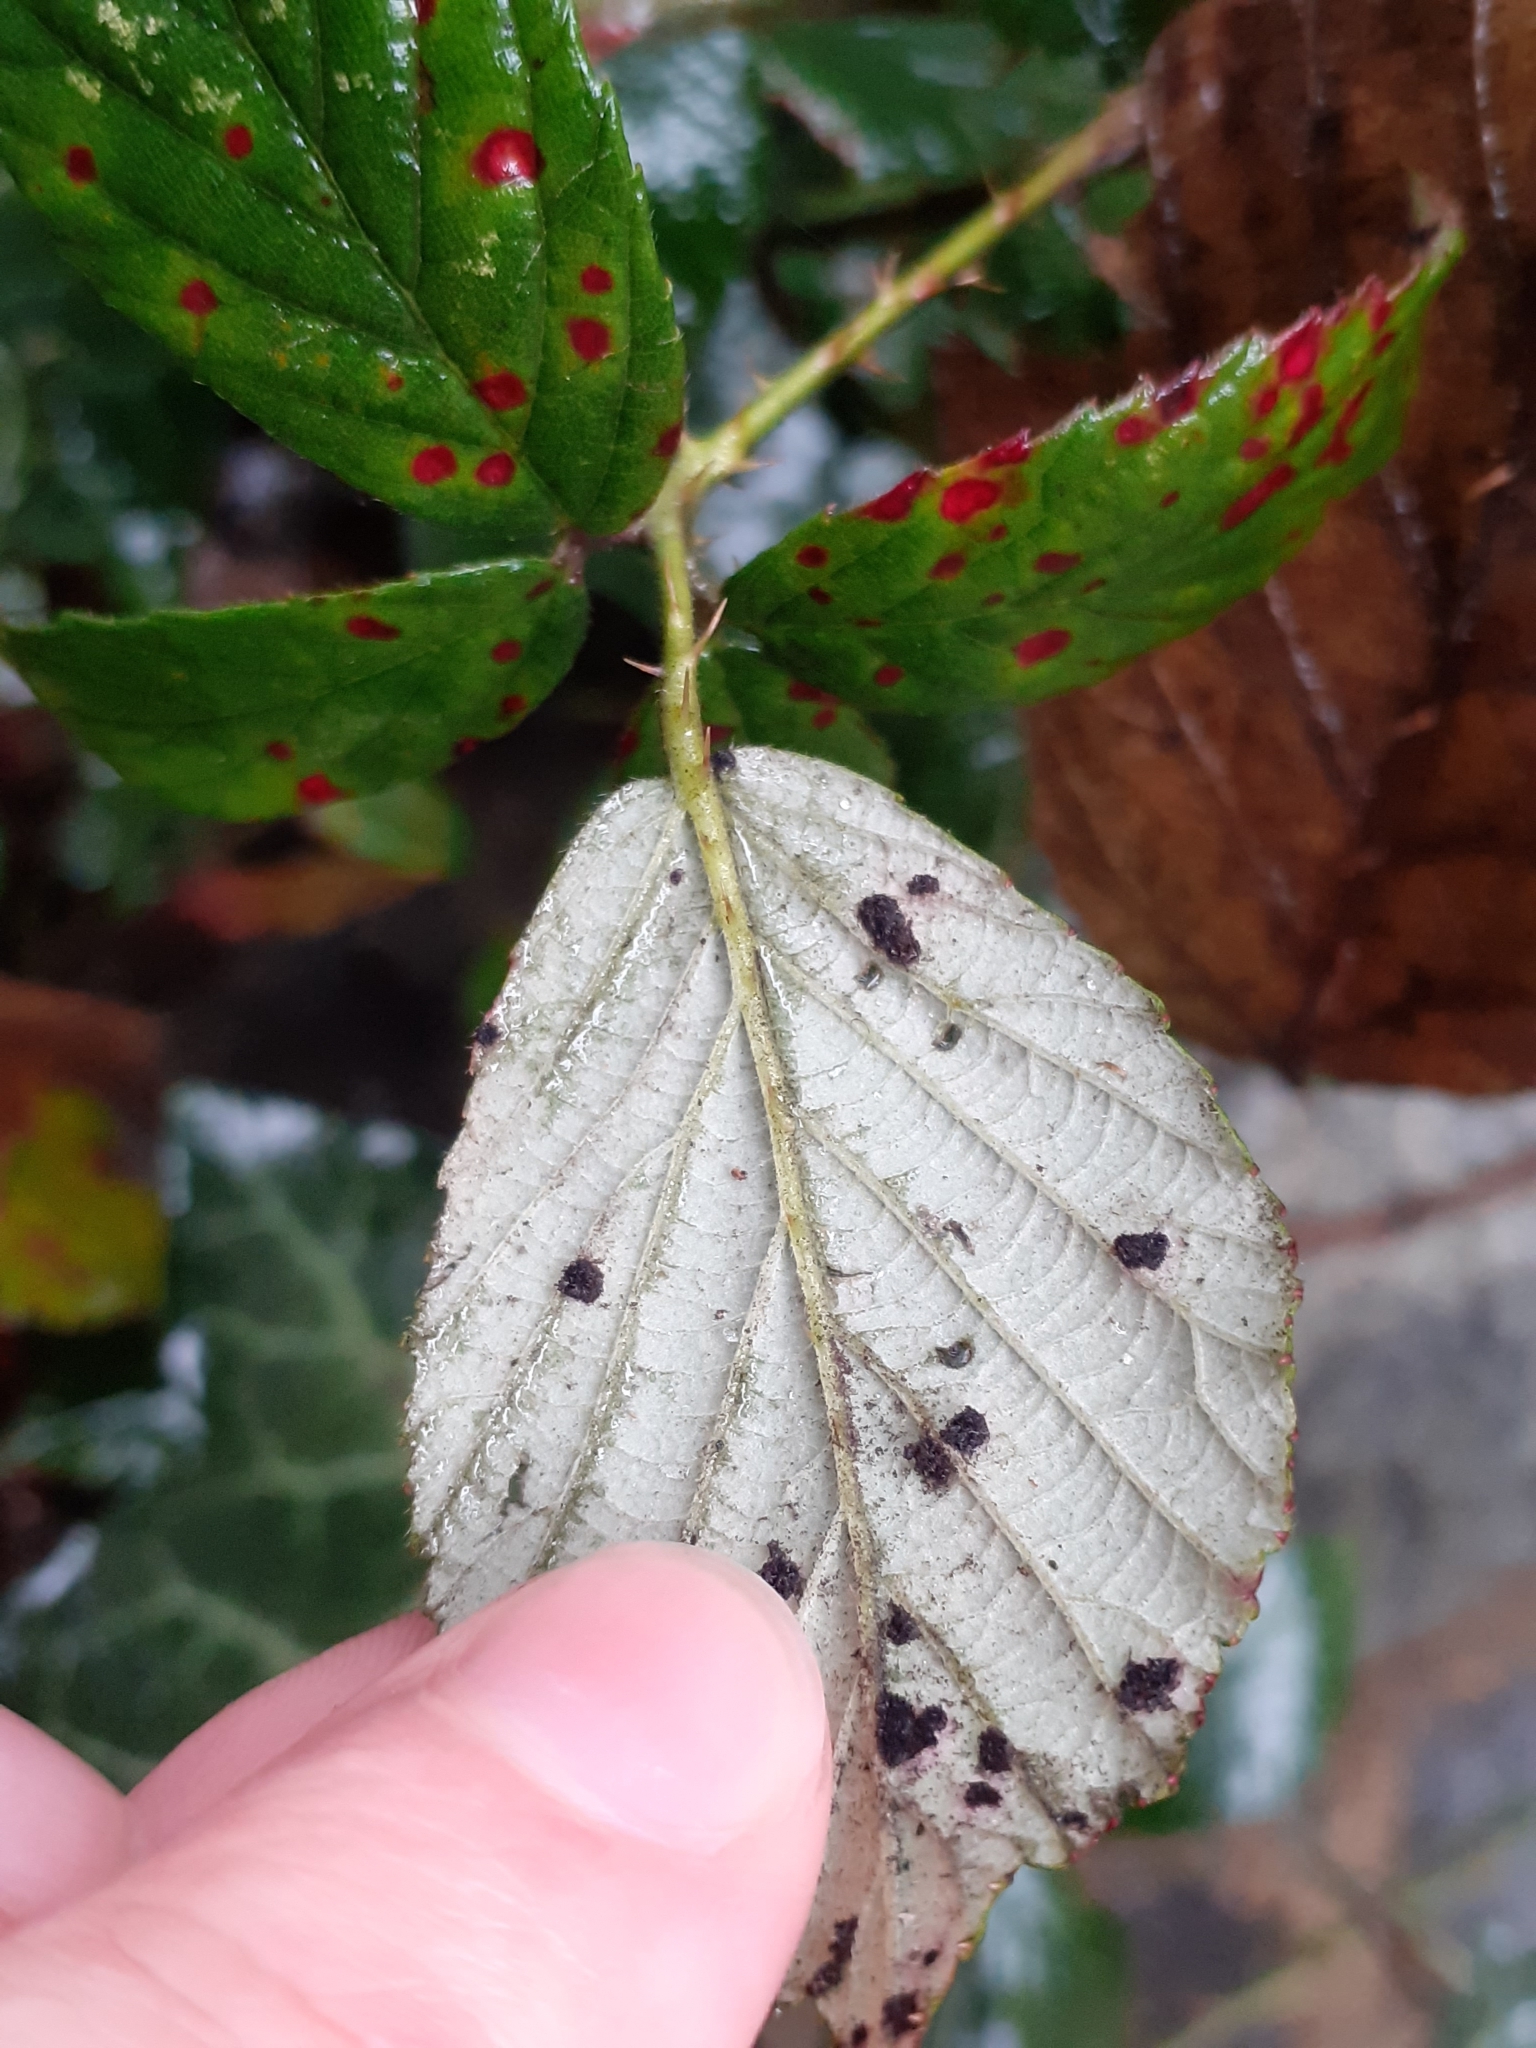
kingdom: Fungi
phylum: Basidiomycota
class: Pucciniomycetes
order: Pucciniales
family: Phragmidiaceae
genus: Phragmidium
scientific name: Phragmidium violaceum
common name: Violet bramble rust
